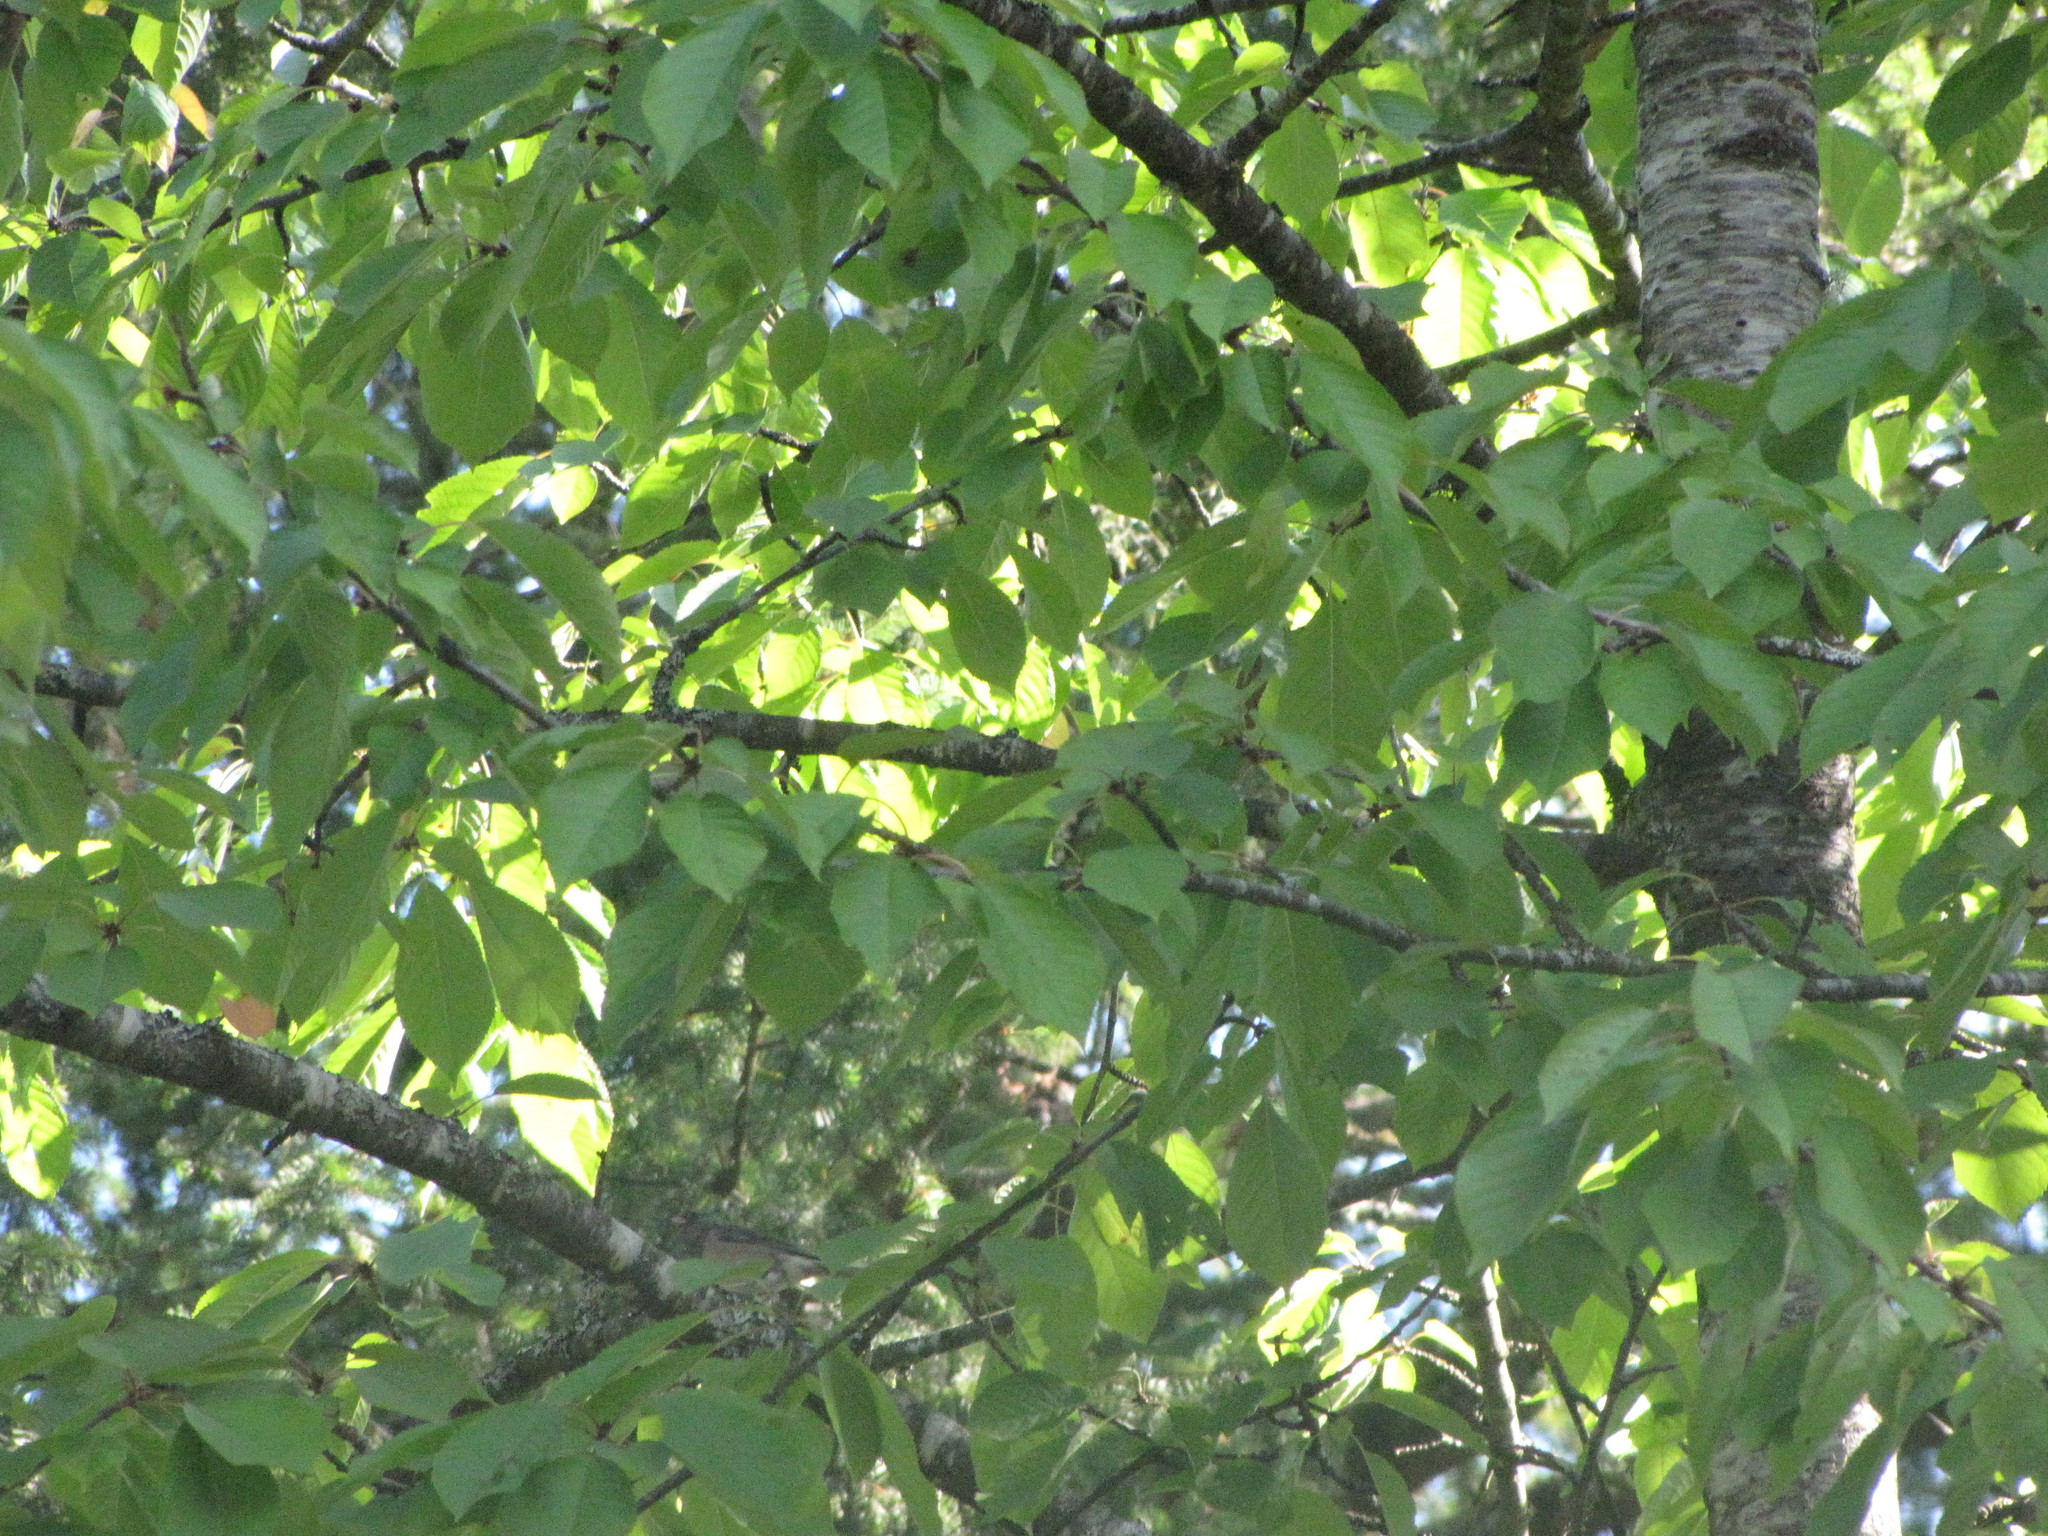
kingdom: Animalia
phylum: Chordata
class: Aves
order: Passeriformes
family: Passerellidae
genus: Junco
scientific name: Junco hyemalis
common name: Dark-eyed junco
